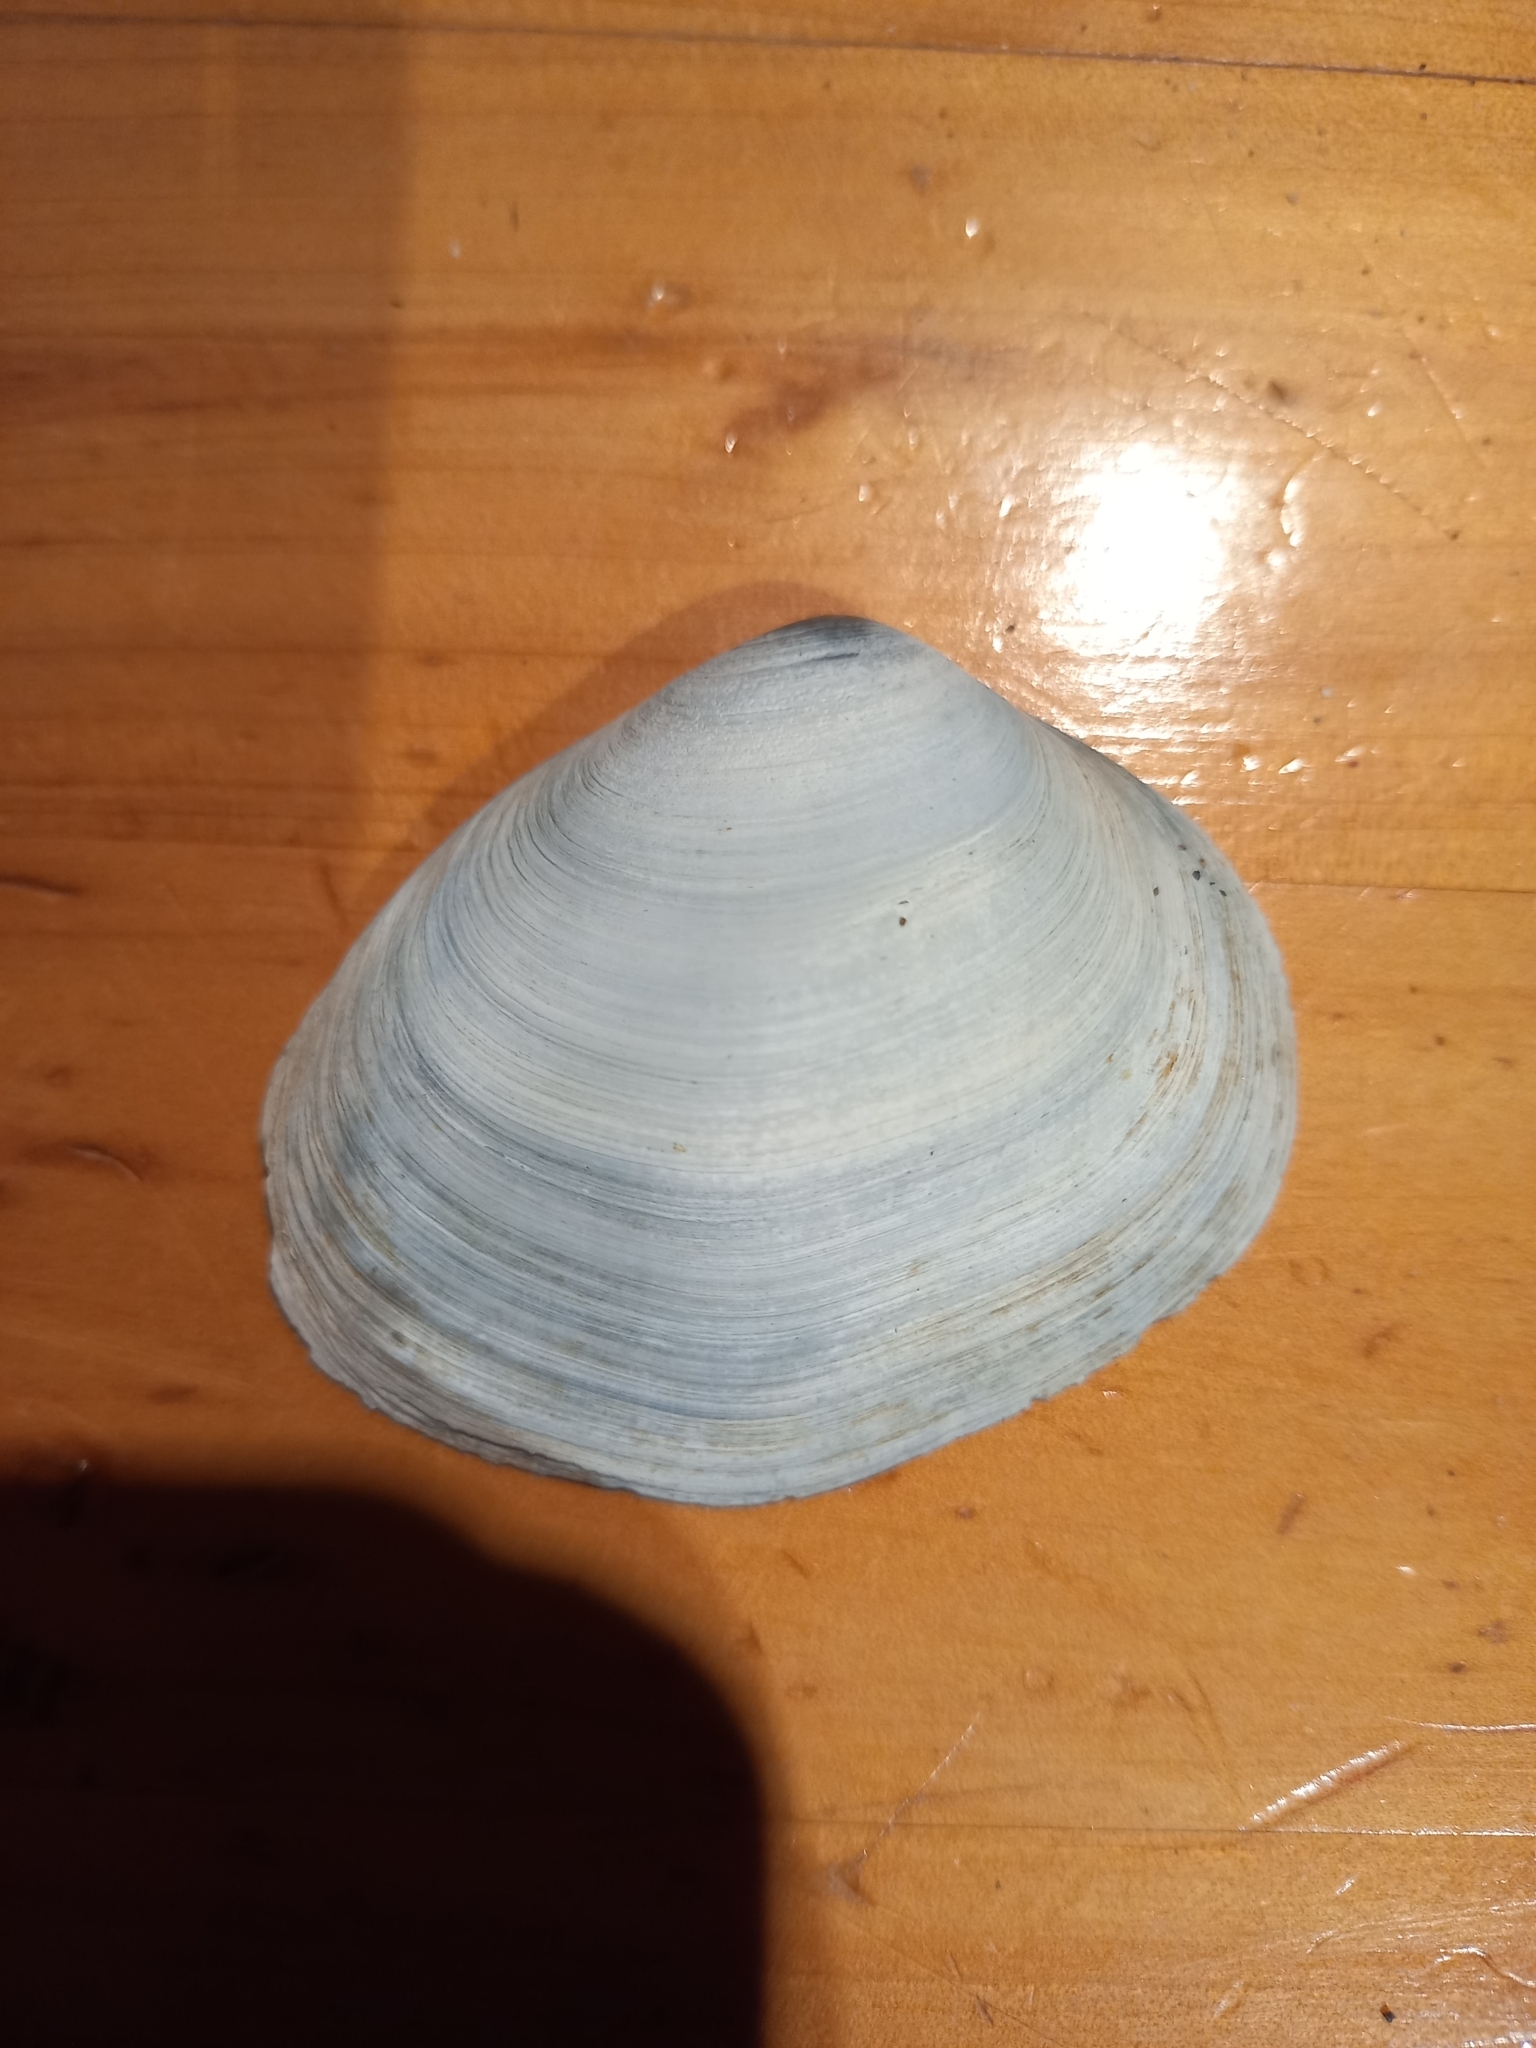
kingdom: Animalia
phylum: Mollusca
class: Bivalvia
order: Venerida
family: Mactridae
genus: Cyclomactra
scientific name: Cyclomactra ovata
